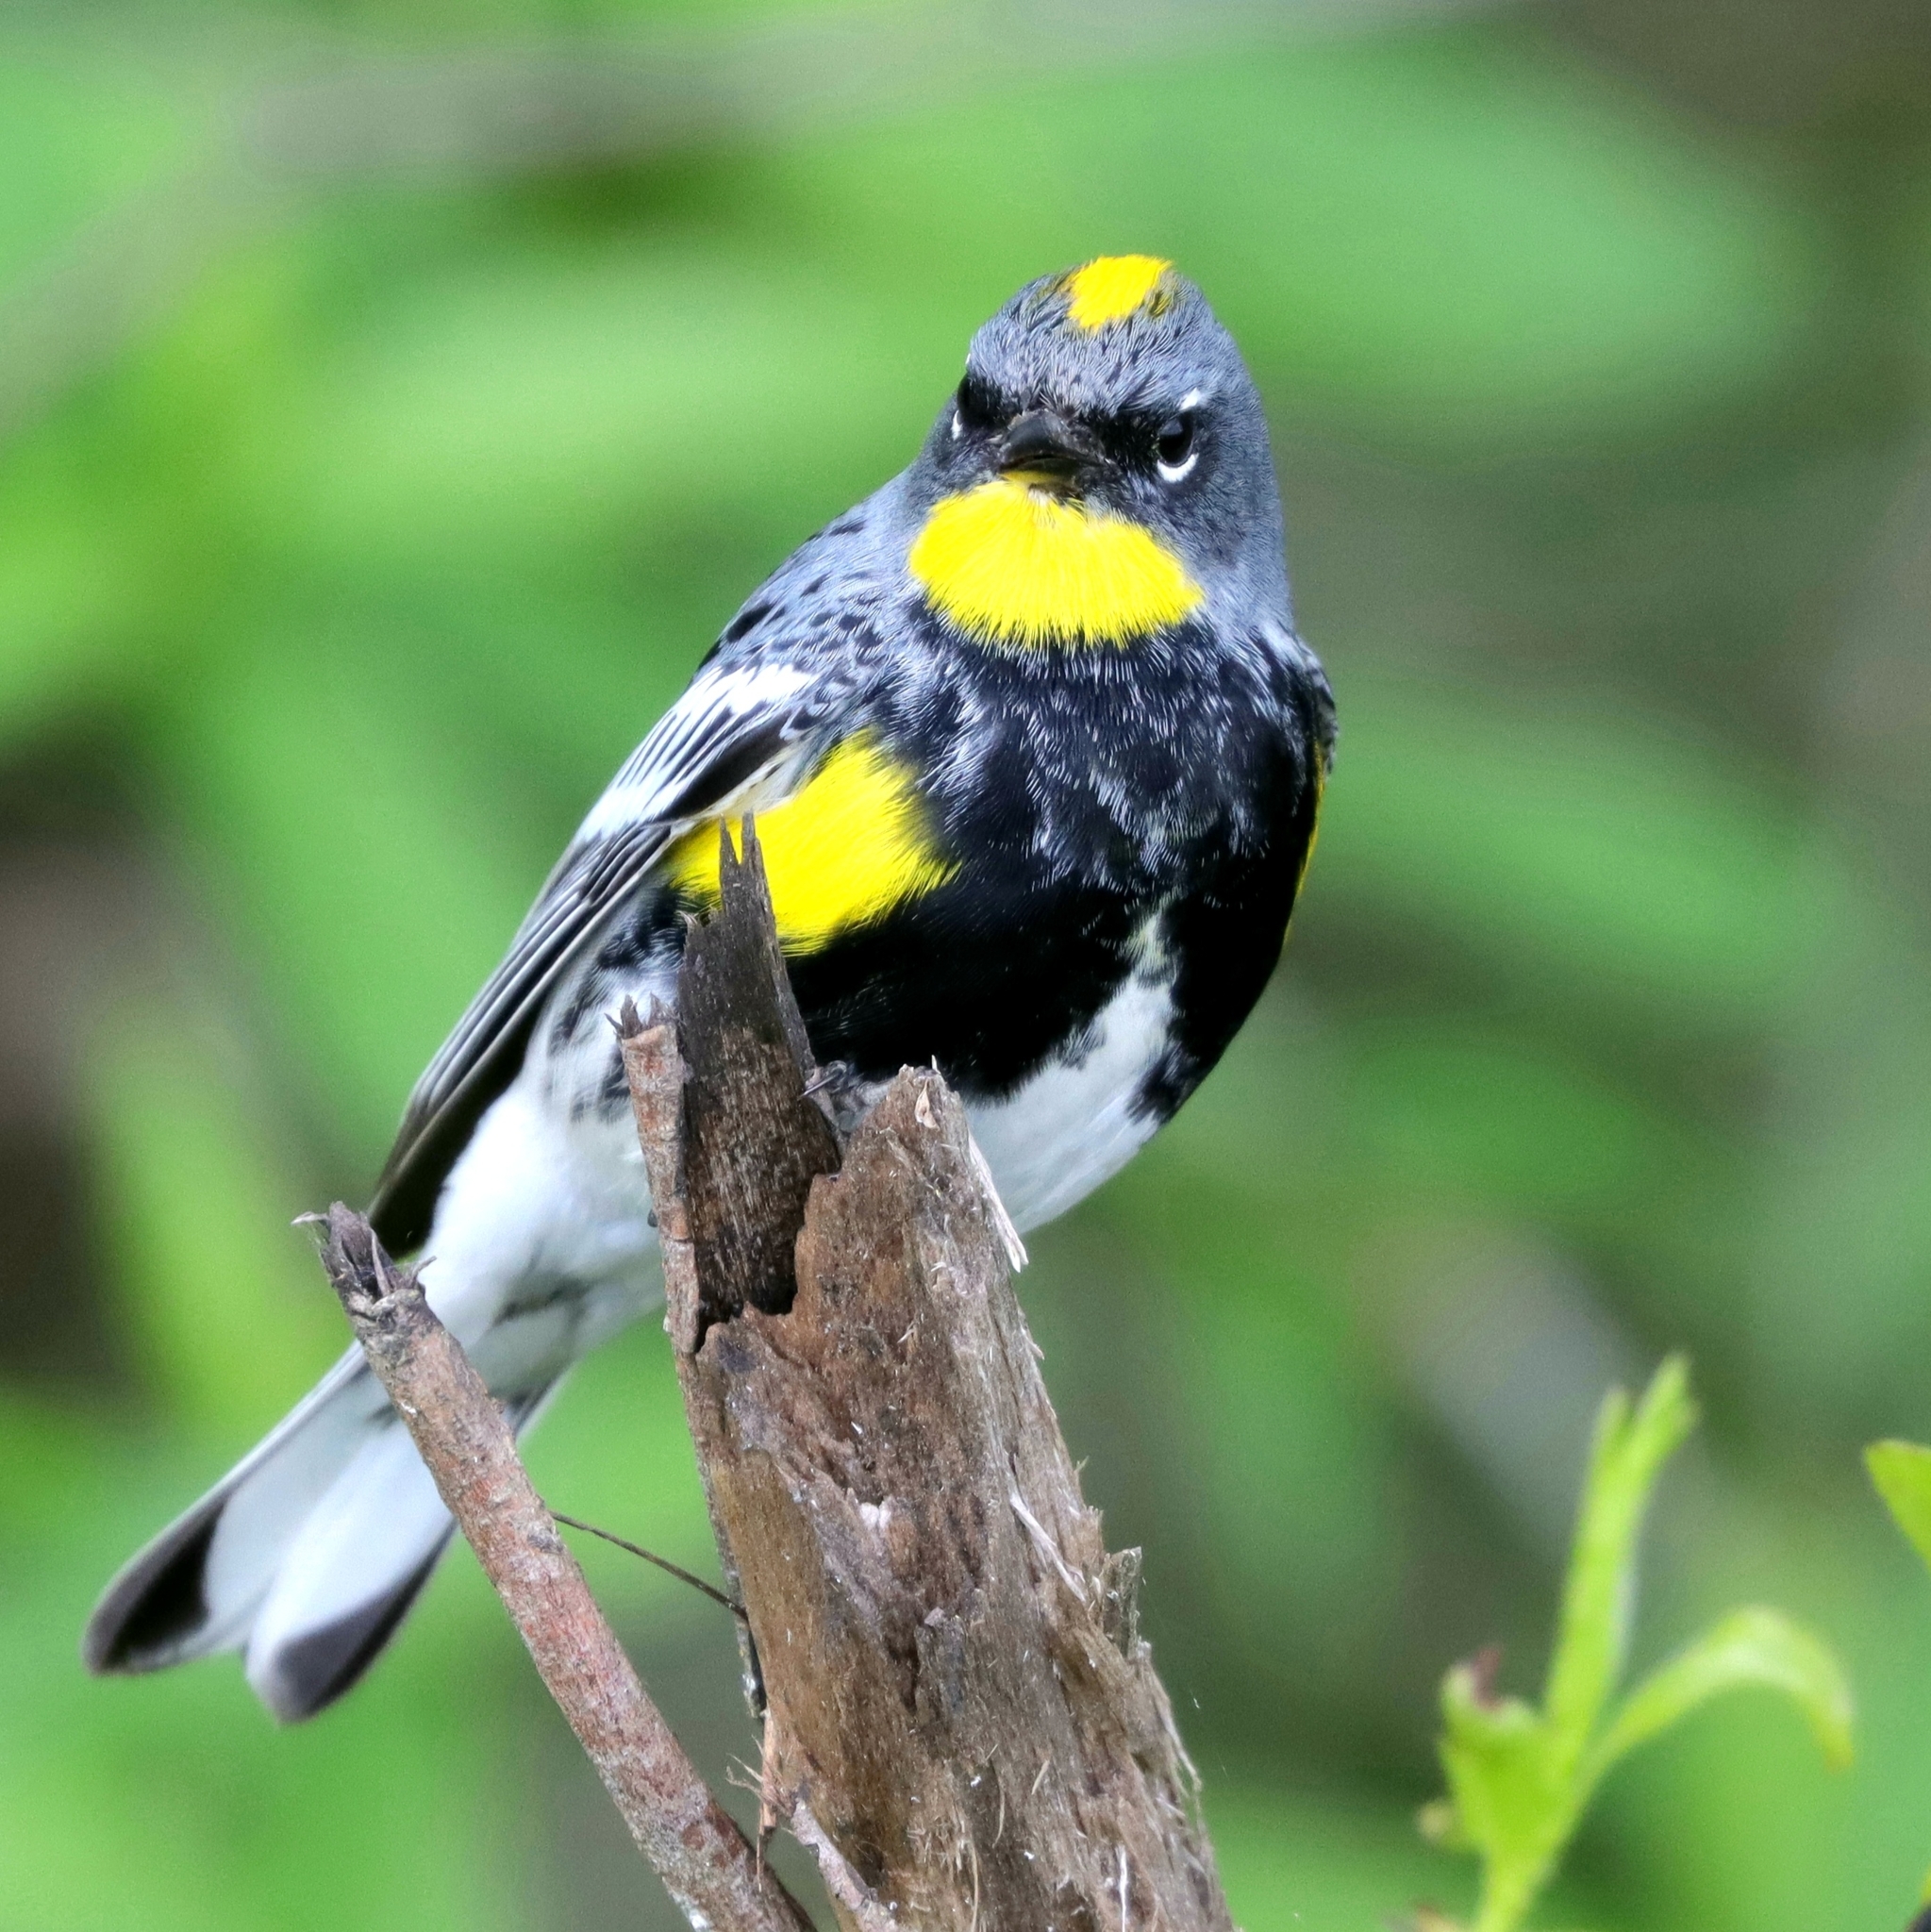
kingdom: Animalia
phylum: Chordata
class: Aves
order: Passeriformes
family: Parulidae
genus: Setophaga
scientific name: Setophaga auduboni
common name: Audubon's warbler
